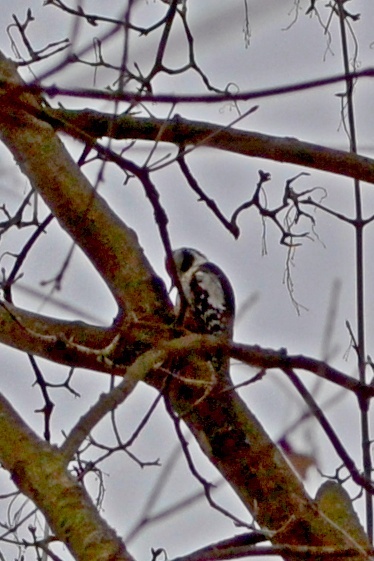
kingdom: Animalia
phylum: Chordata
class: Aves
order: Piciformes
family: Picidae
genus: Dendrocoptes
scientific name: Dendrocoptes medius
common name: Middle spotted woodpecker
